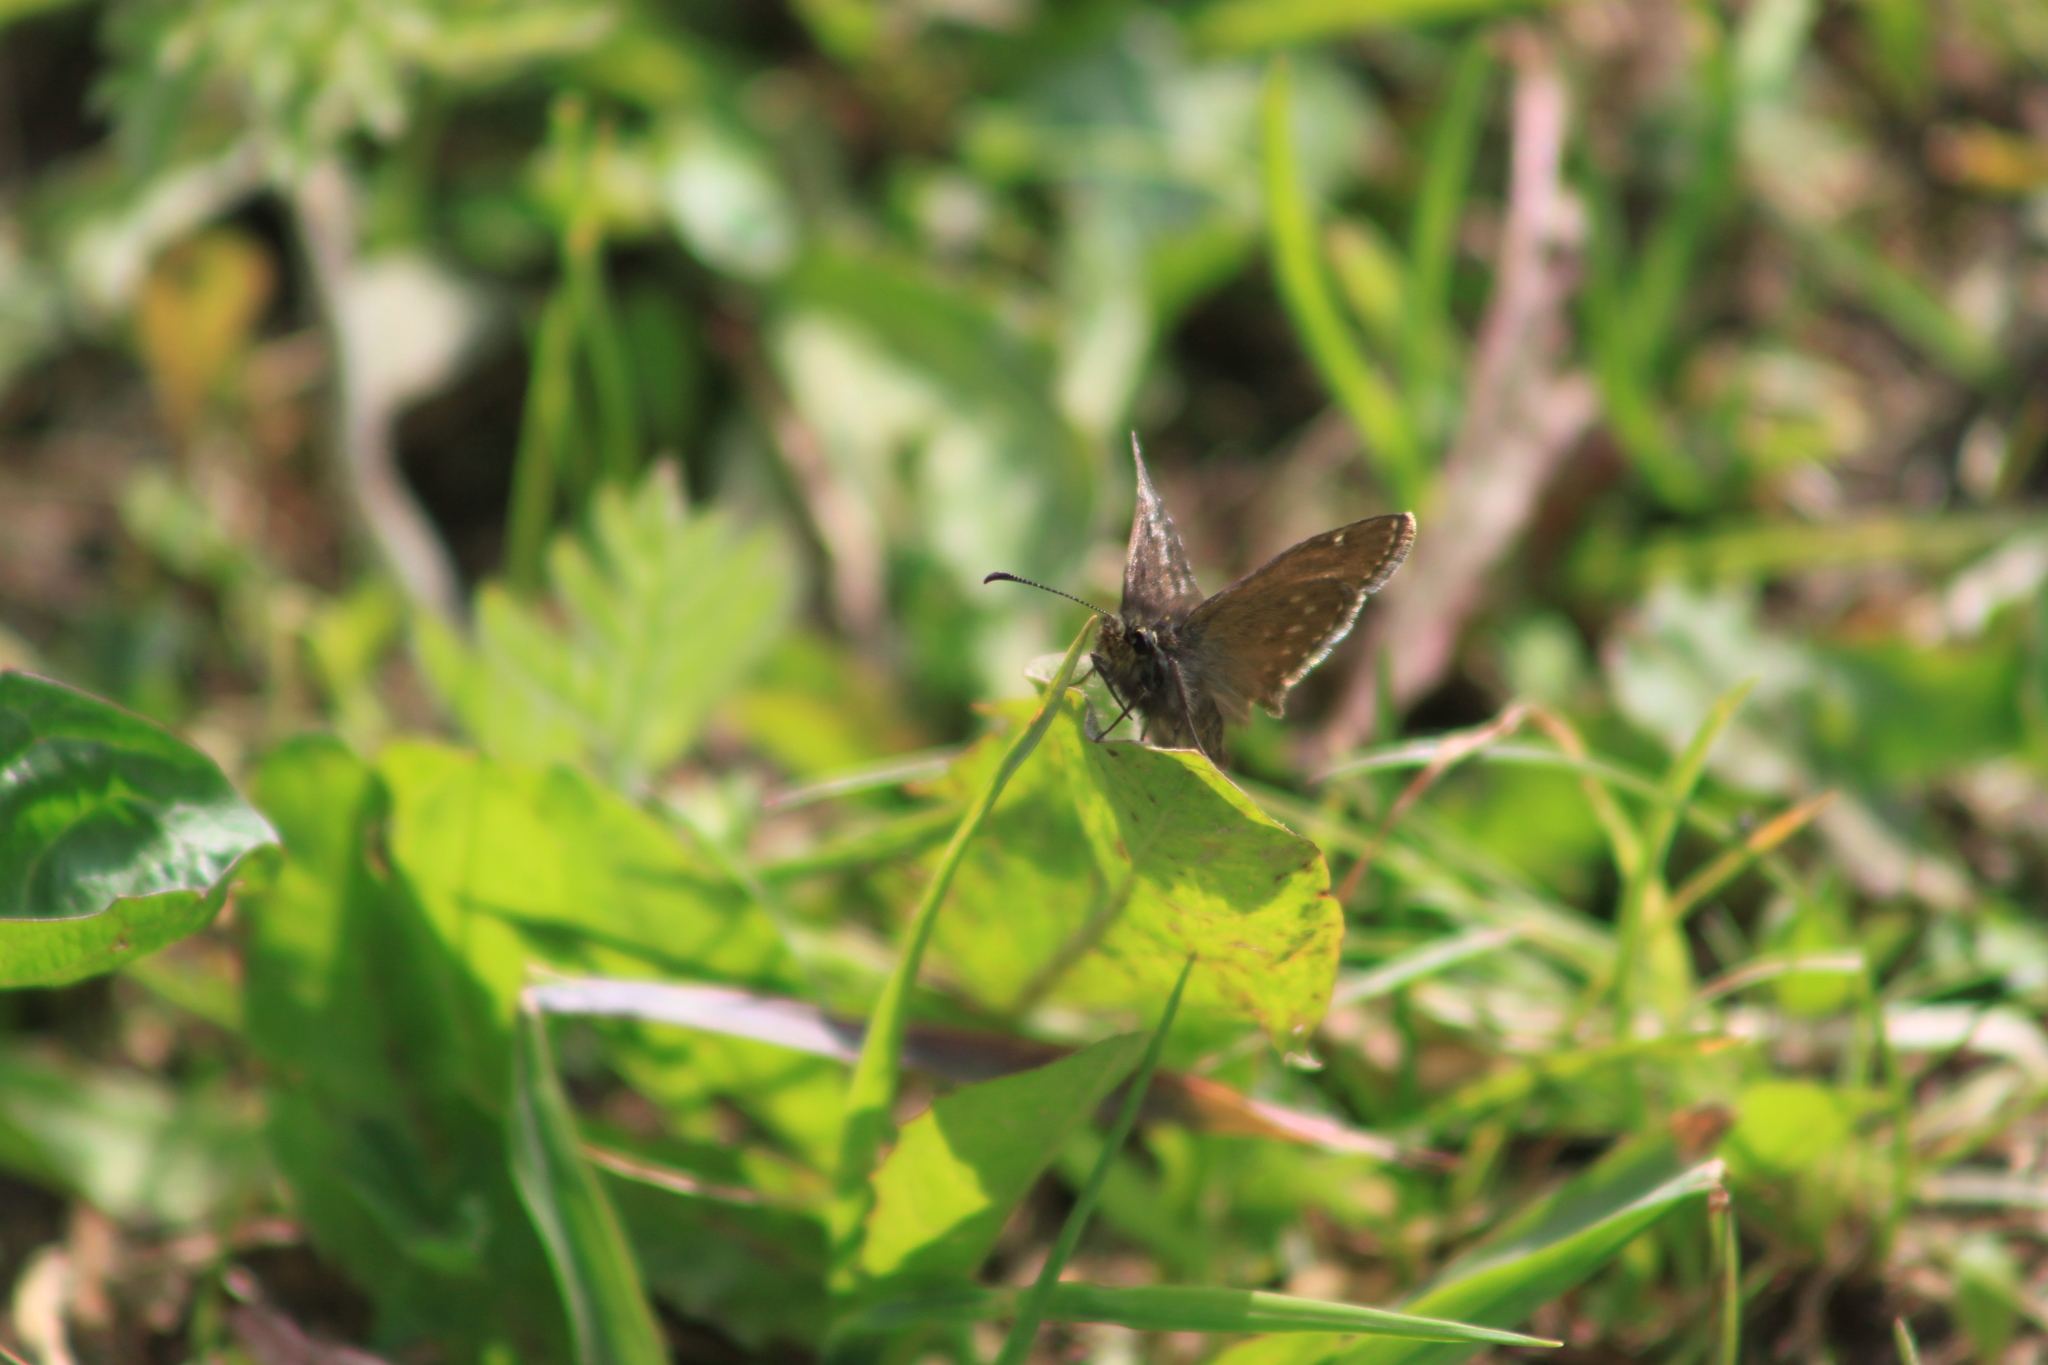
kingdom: Animalia
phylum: Arthropoda
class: Insecta
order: Lepidoptera
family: Hesperiidae
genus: Erynnis
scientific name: Erynnis tages
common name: Dingy skipper
